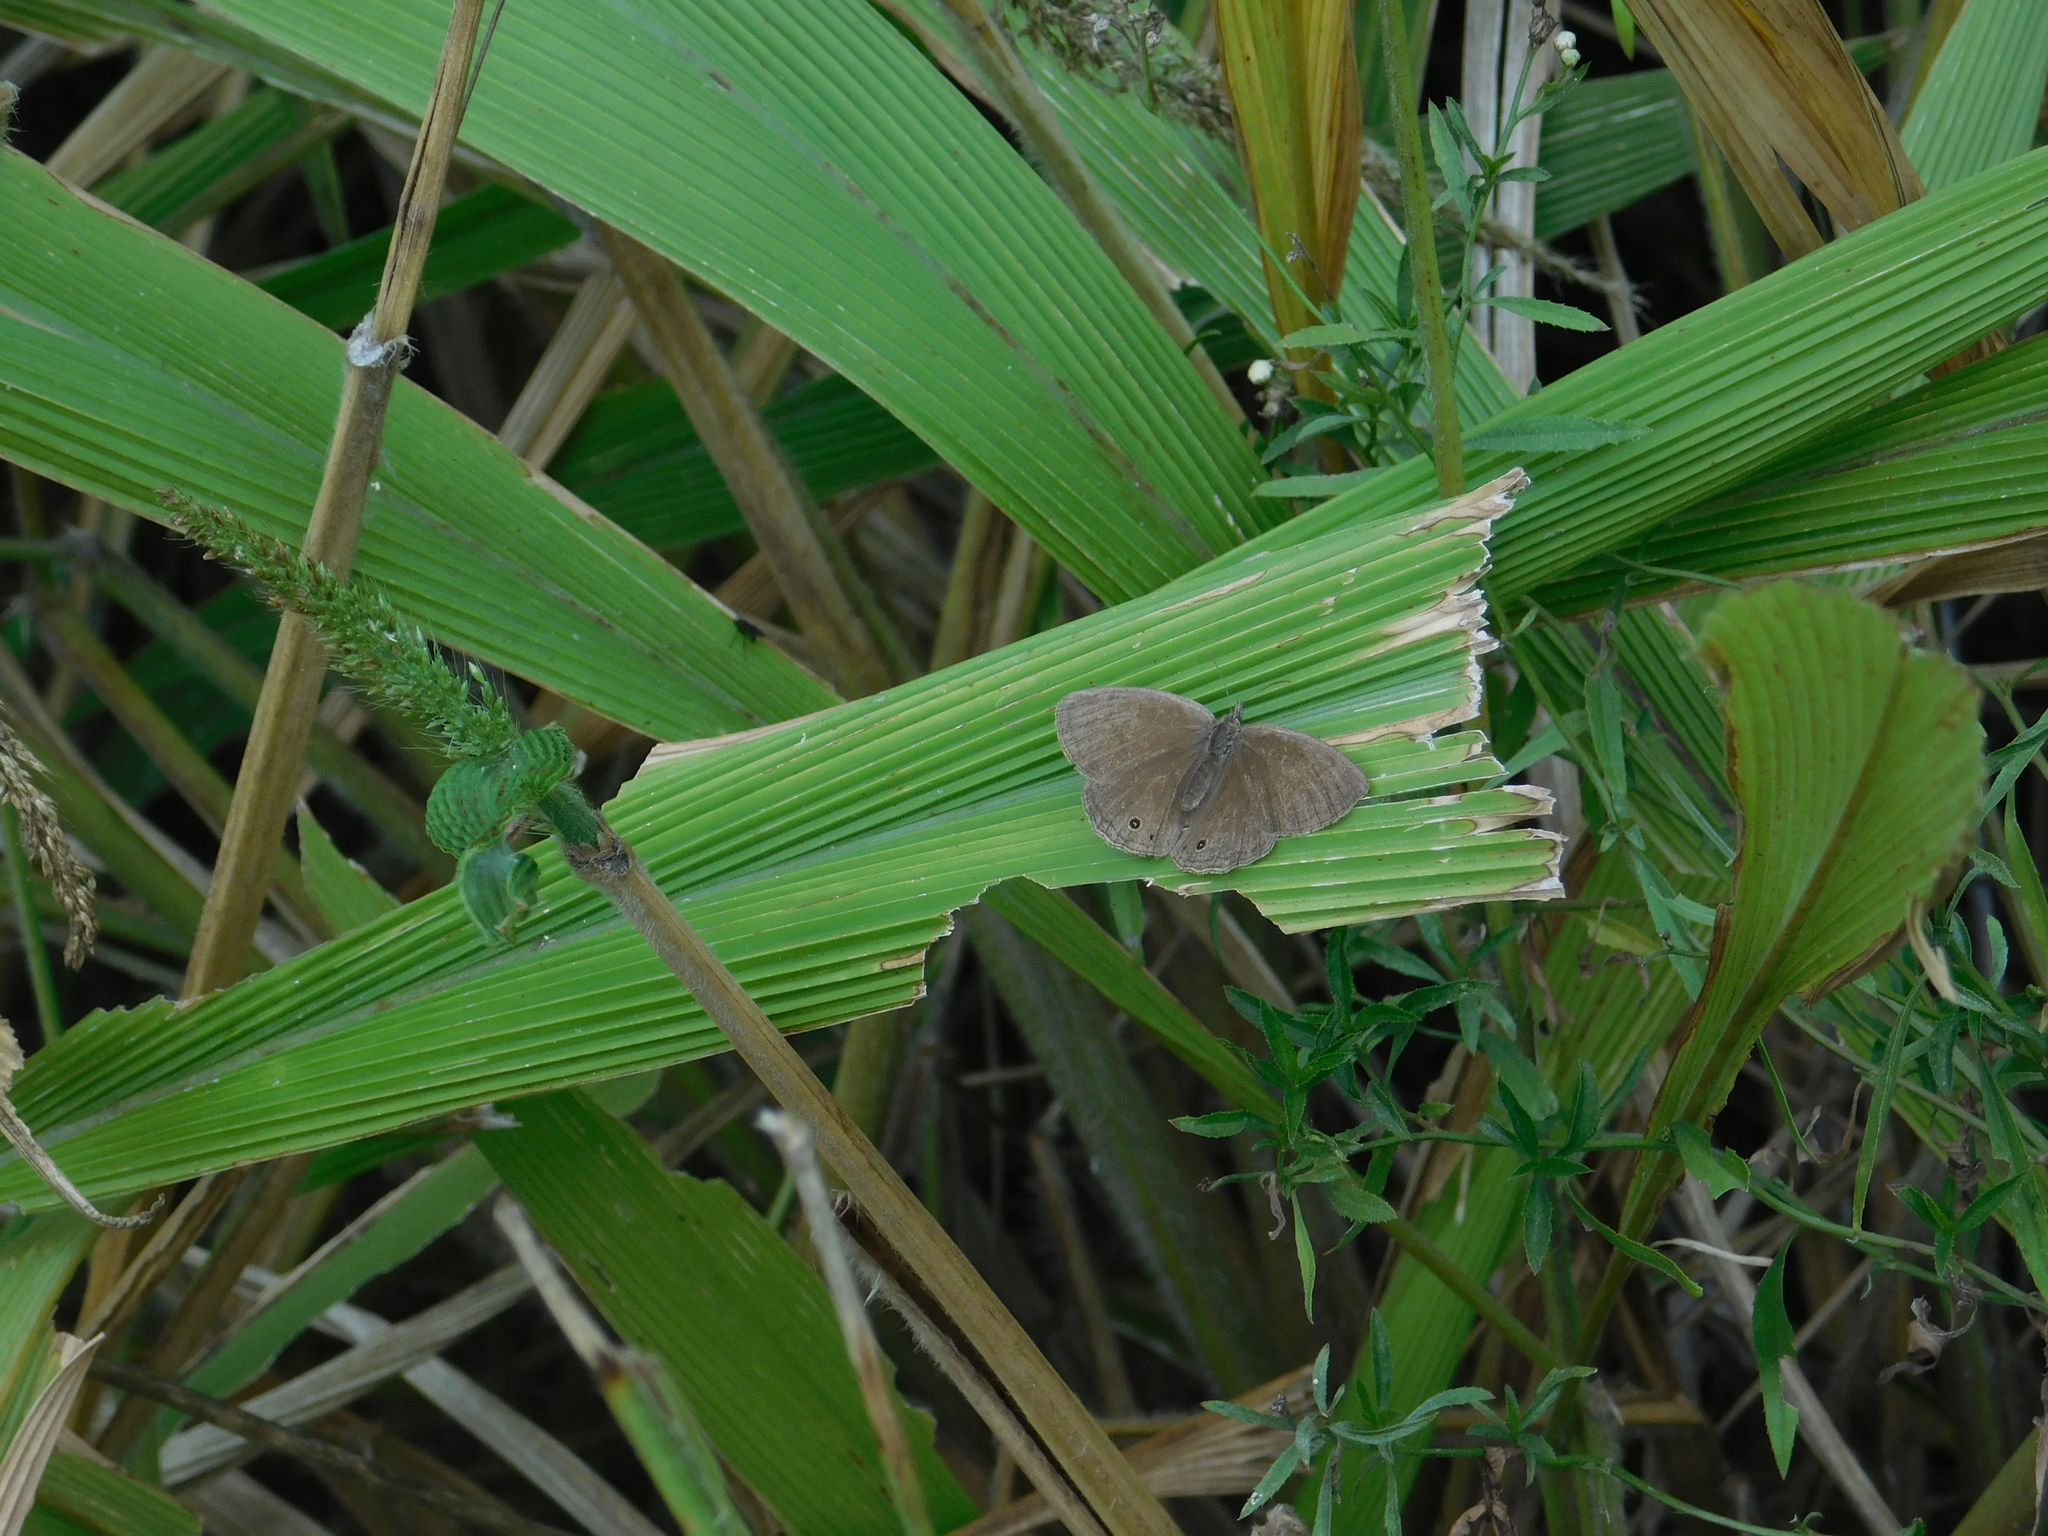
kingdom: Animalia
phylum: Arthropoda
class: Insecta
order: Lepidoptera
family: Nymphalidae
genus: Euptychiina
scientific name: Euptychiina
